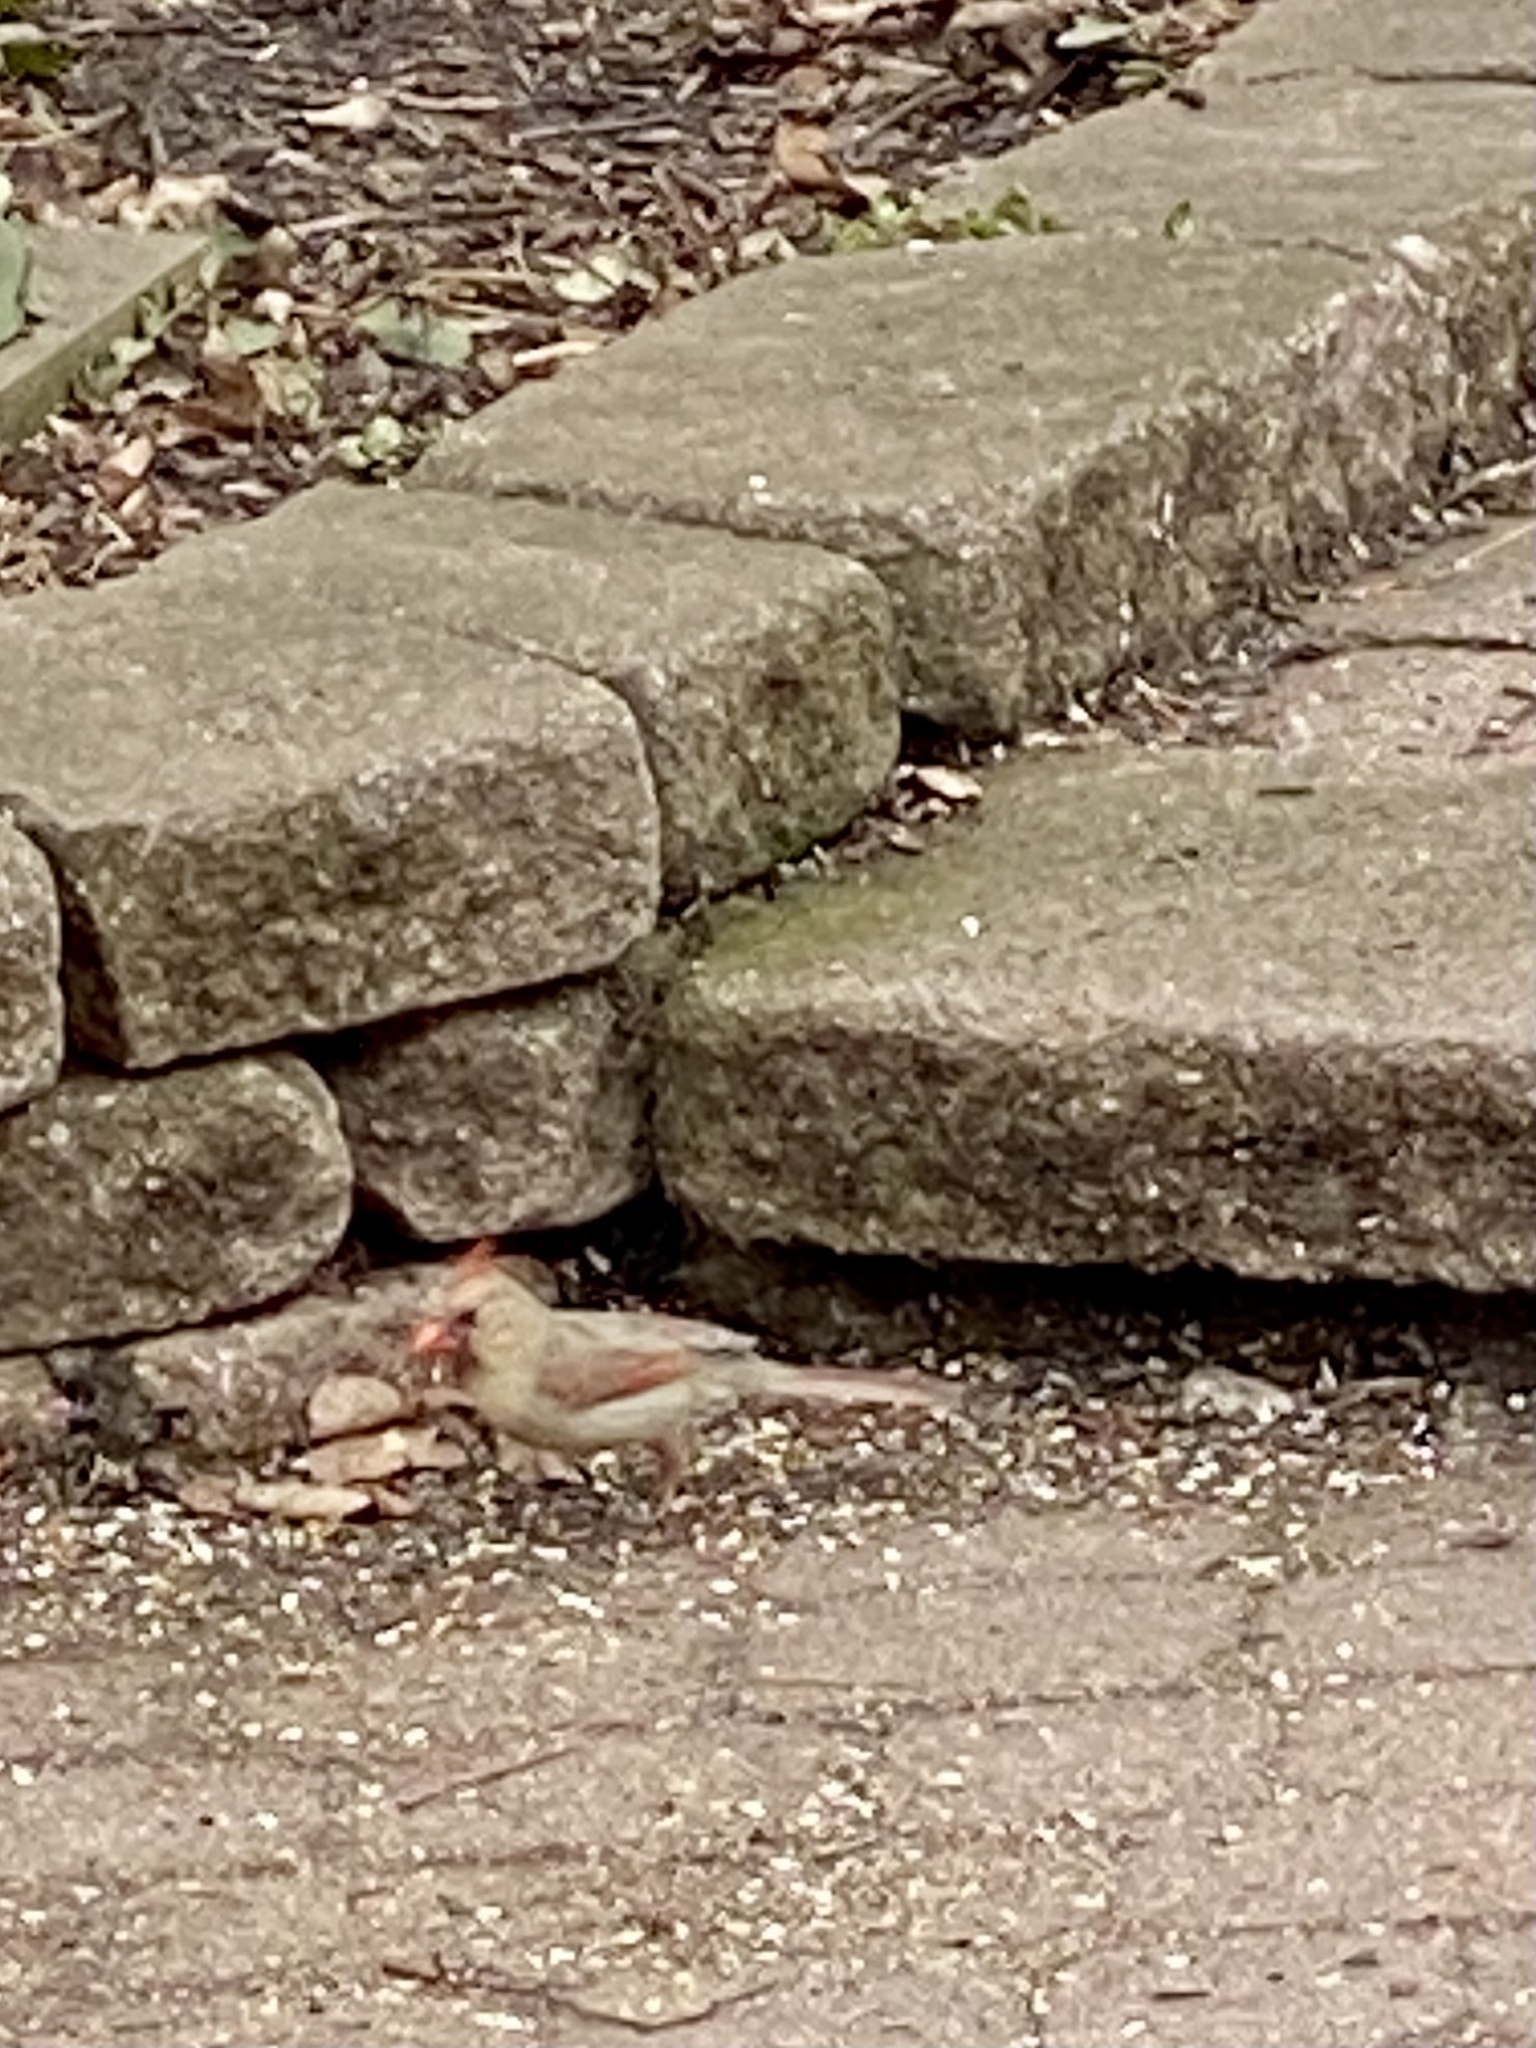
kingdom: Animalia
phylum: Chordata
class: Aves
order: Passeriformes
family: Cardinalidae
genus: Cardinalis
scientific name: Cardinalis cardinalis
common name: Northern cardinal
